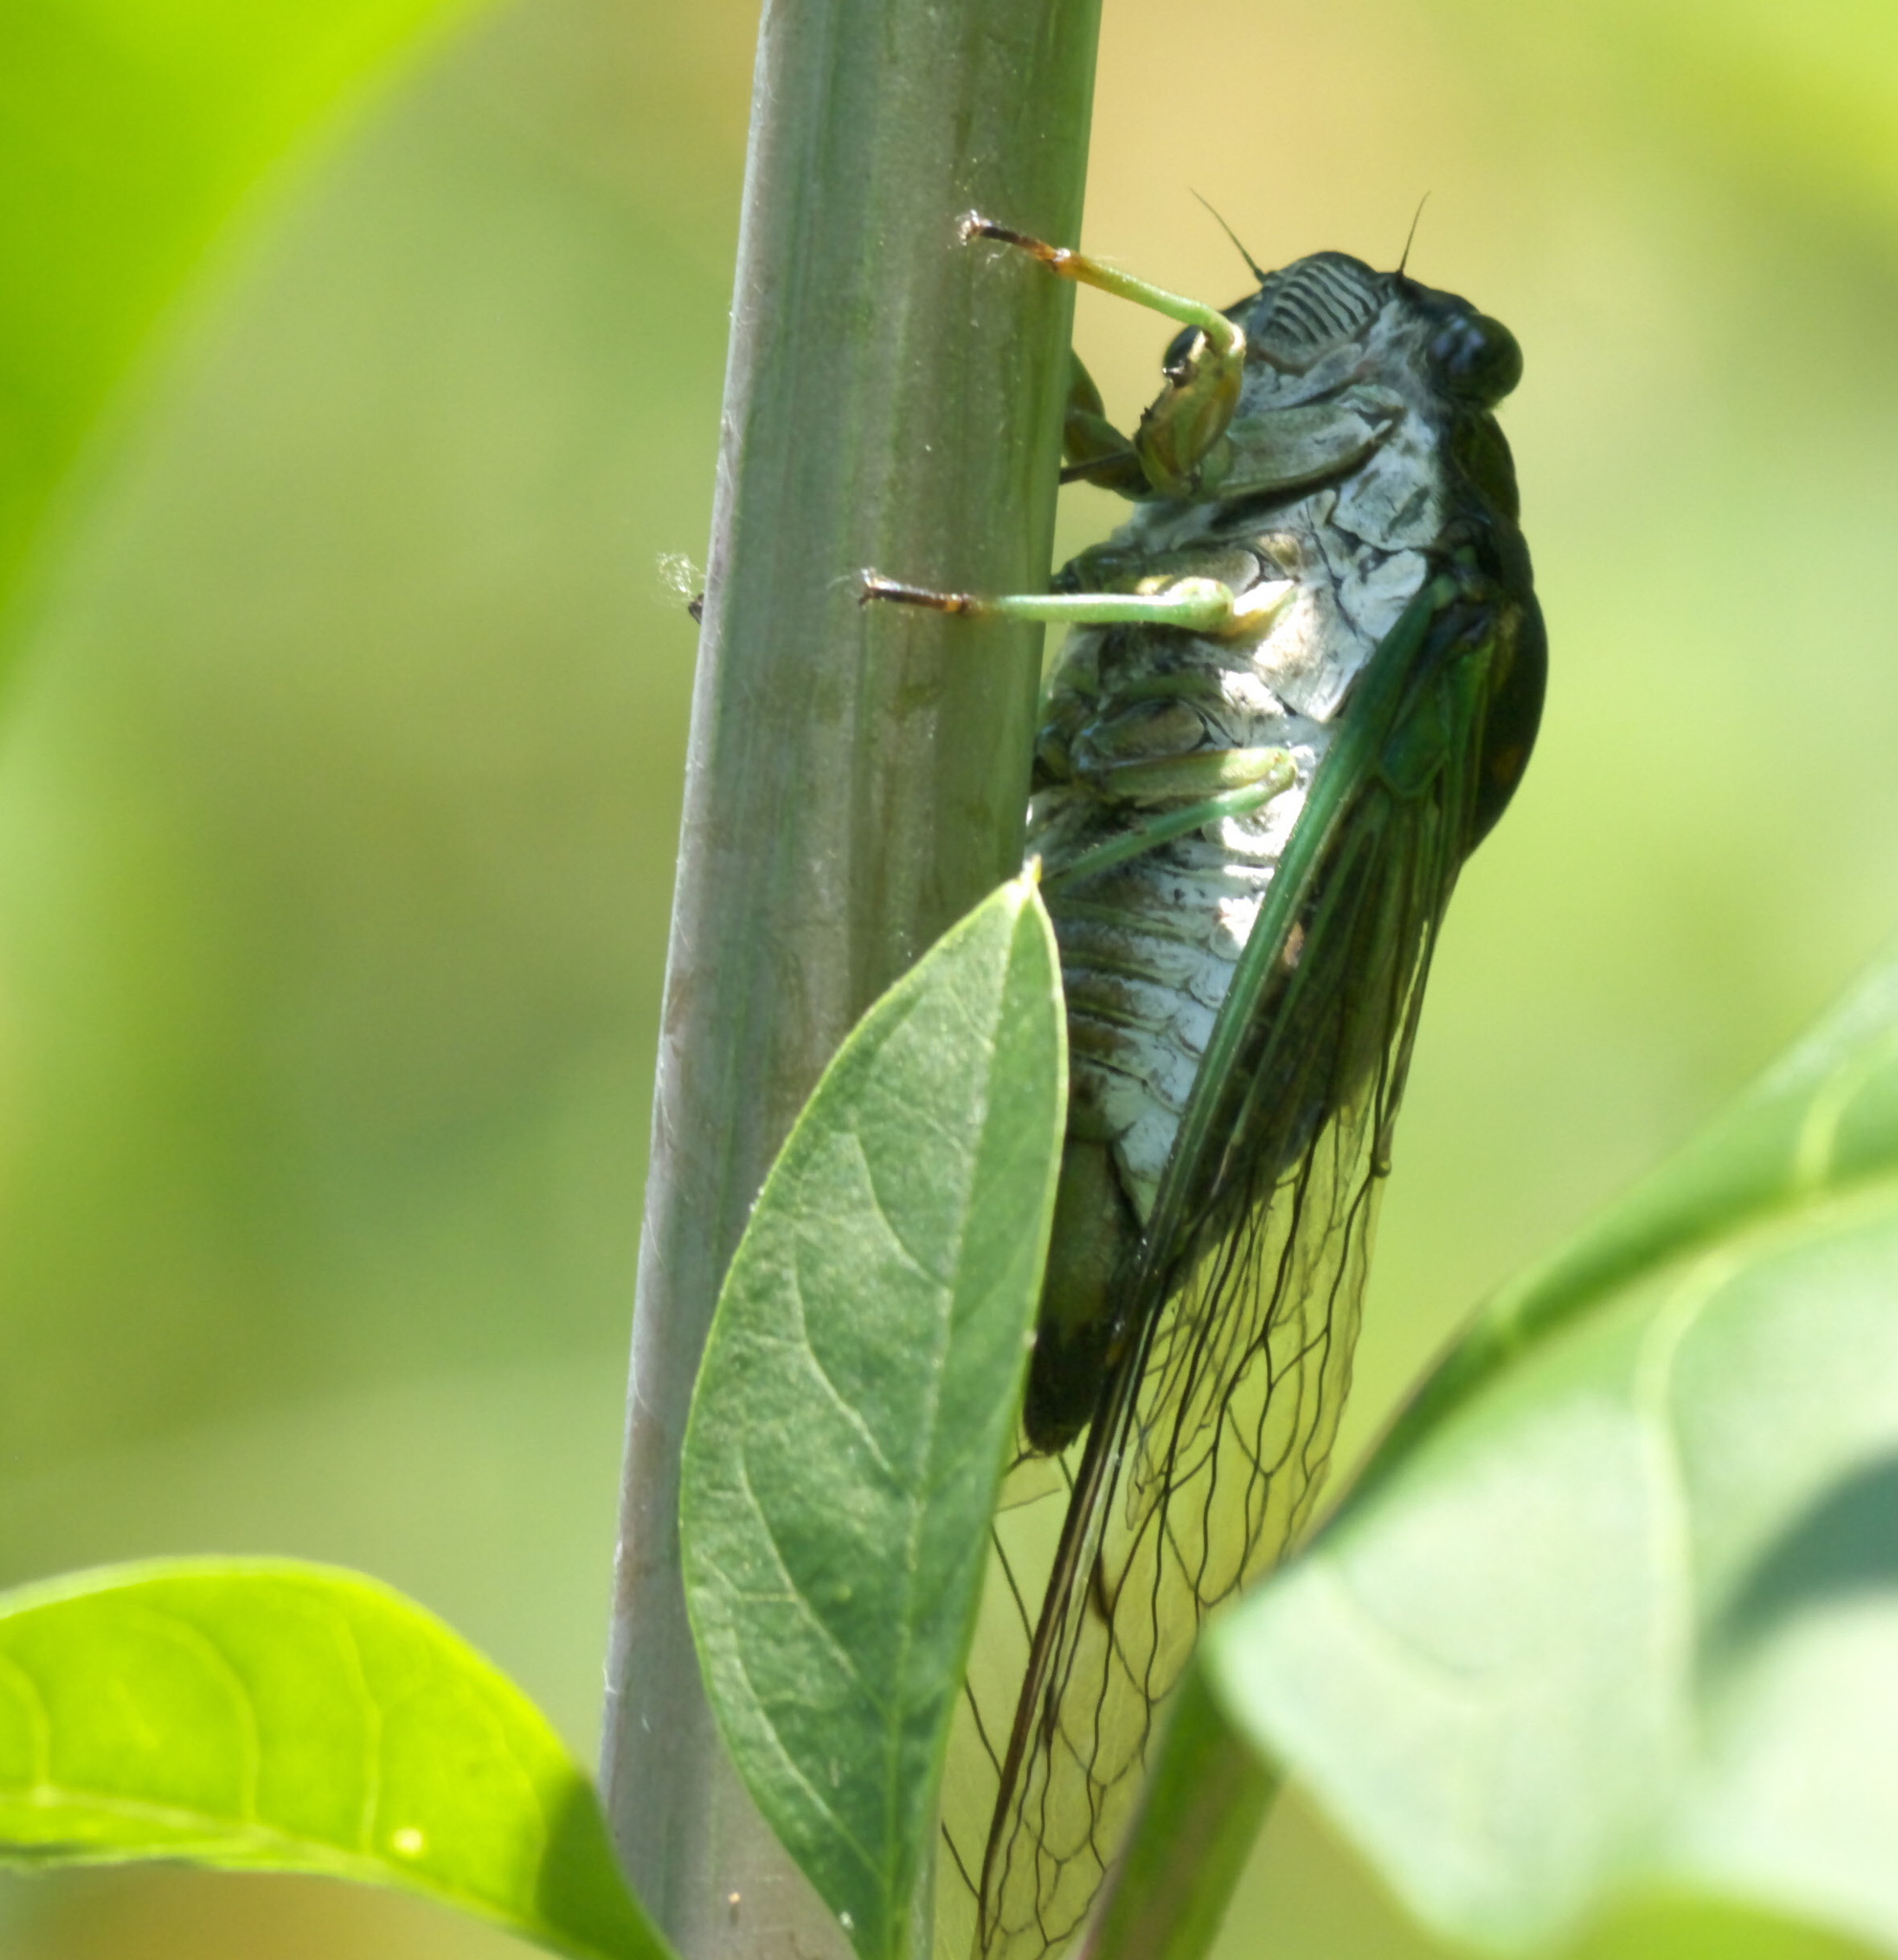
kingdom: Animalia
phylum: Arthropoda
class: Insecta
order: Hemiptera
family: Cicadidae
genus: Neotibicen
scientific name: Neotibicen tibicen
